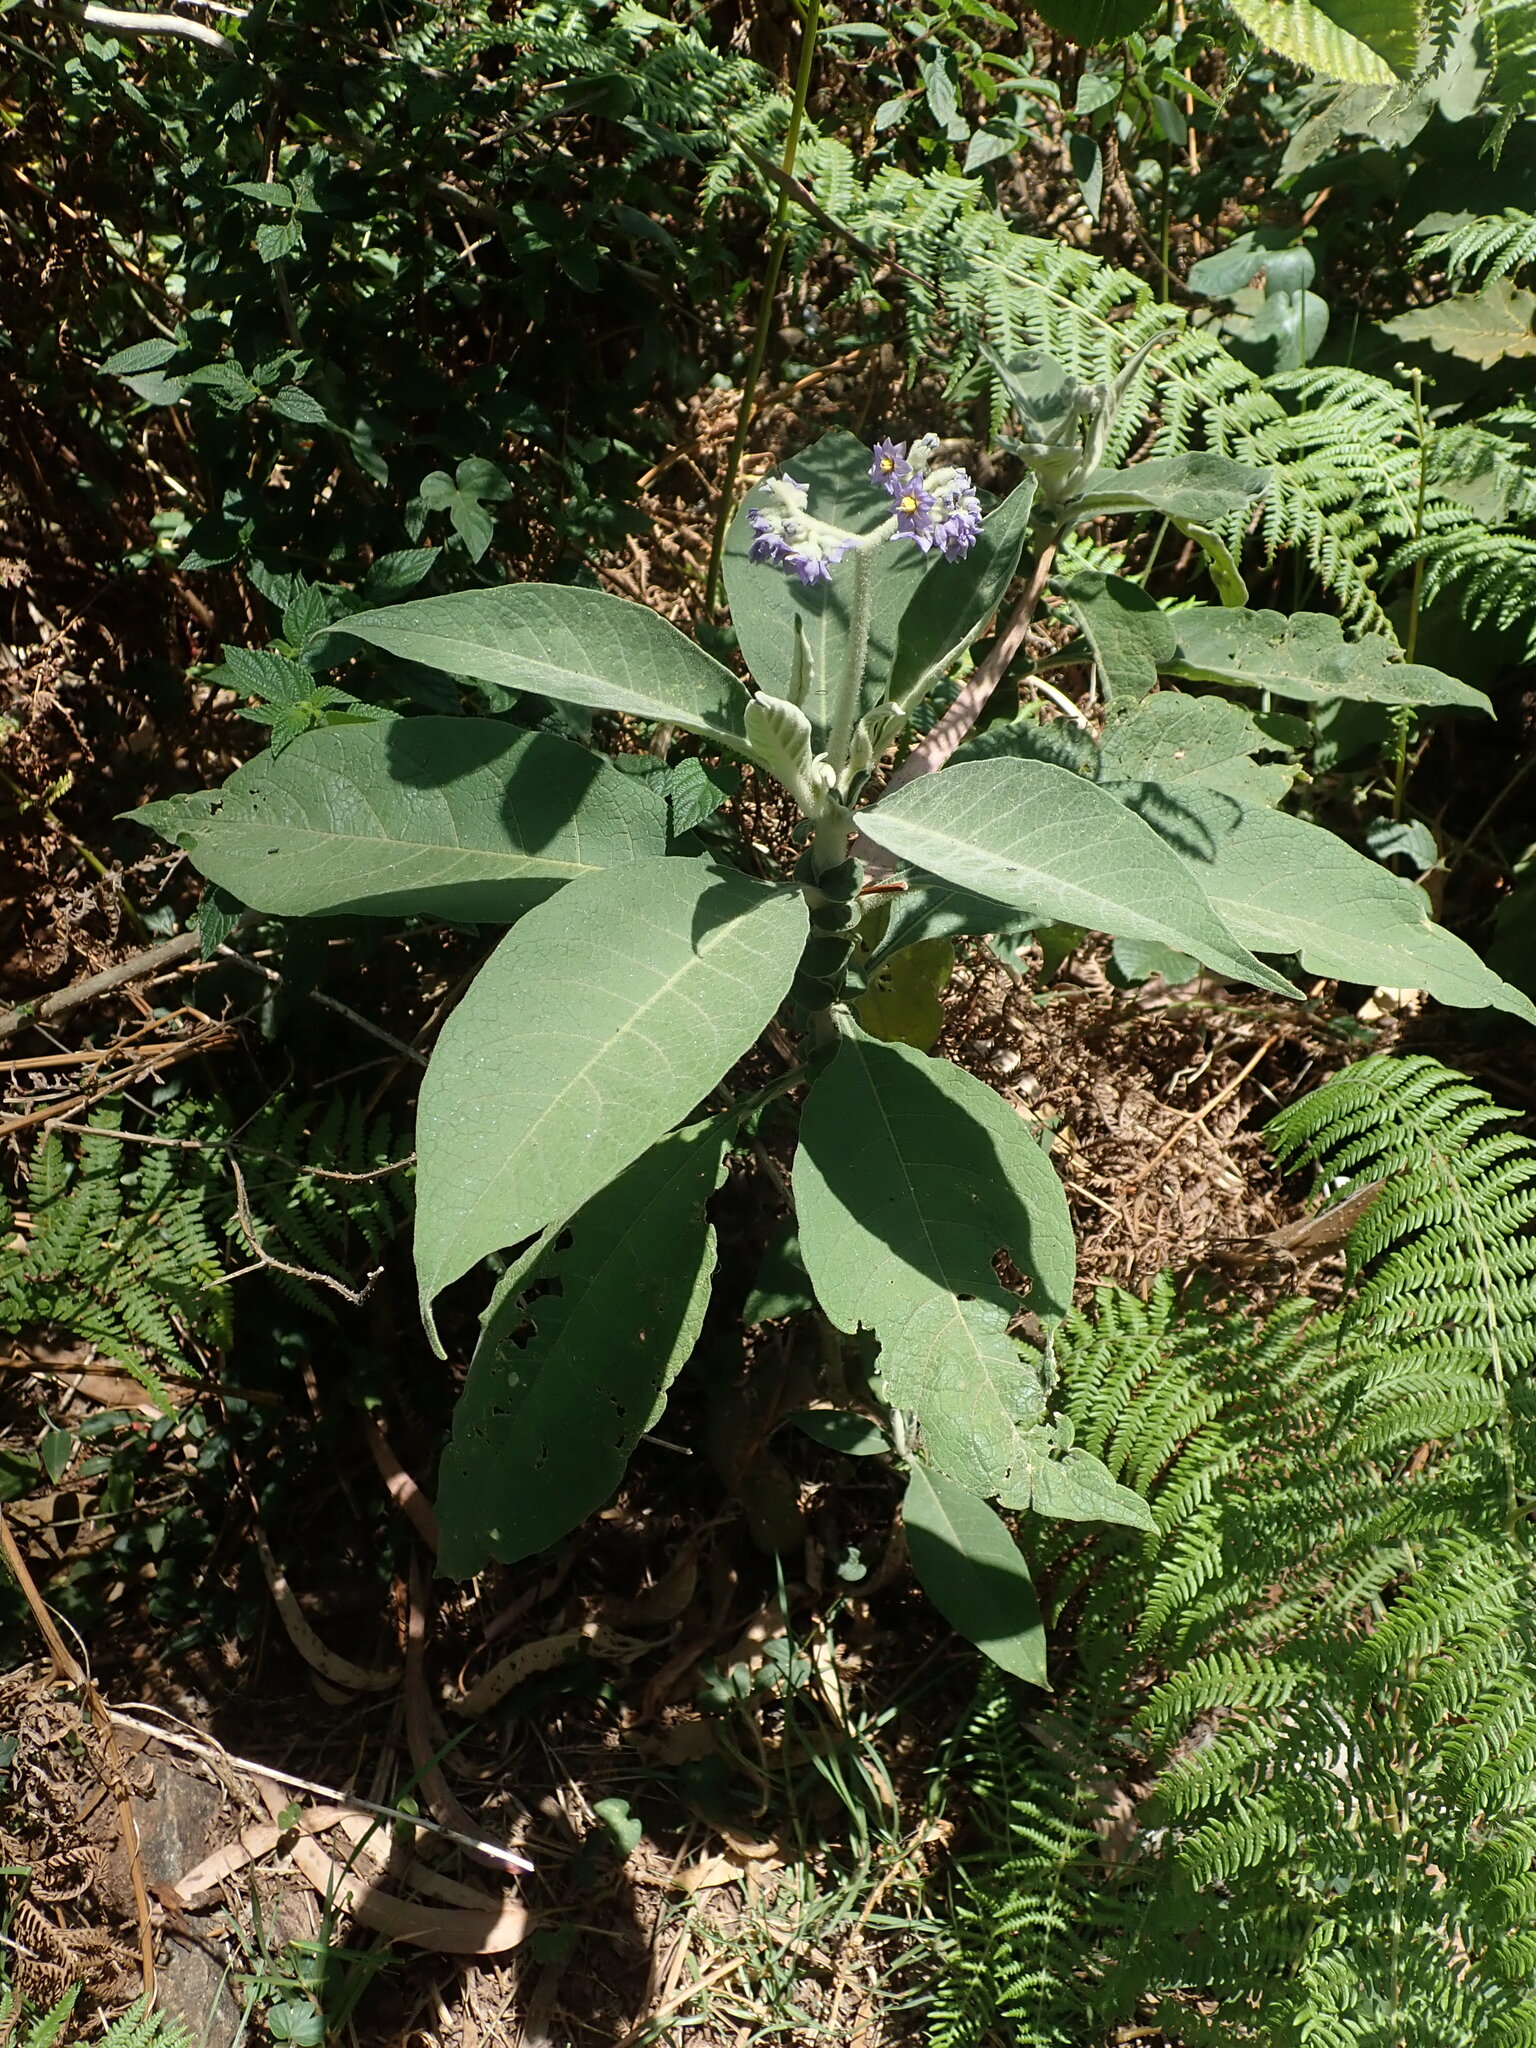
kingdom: Plantae
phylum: Tracheophyta
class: Magnoliopsida
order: Solanales
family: Solanaceae
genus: Solanum
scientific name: Solanum mauritianum
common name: Earleaf nightshade
